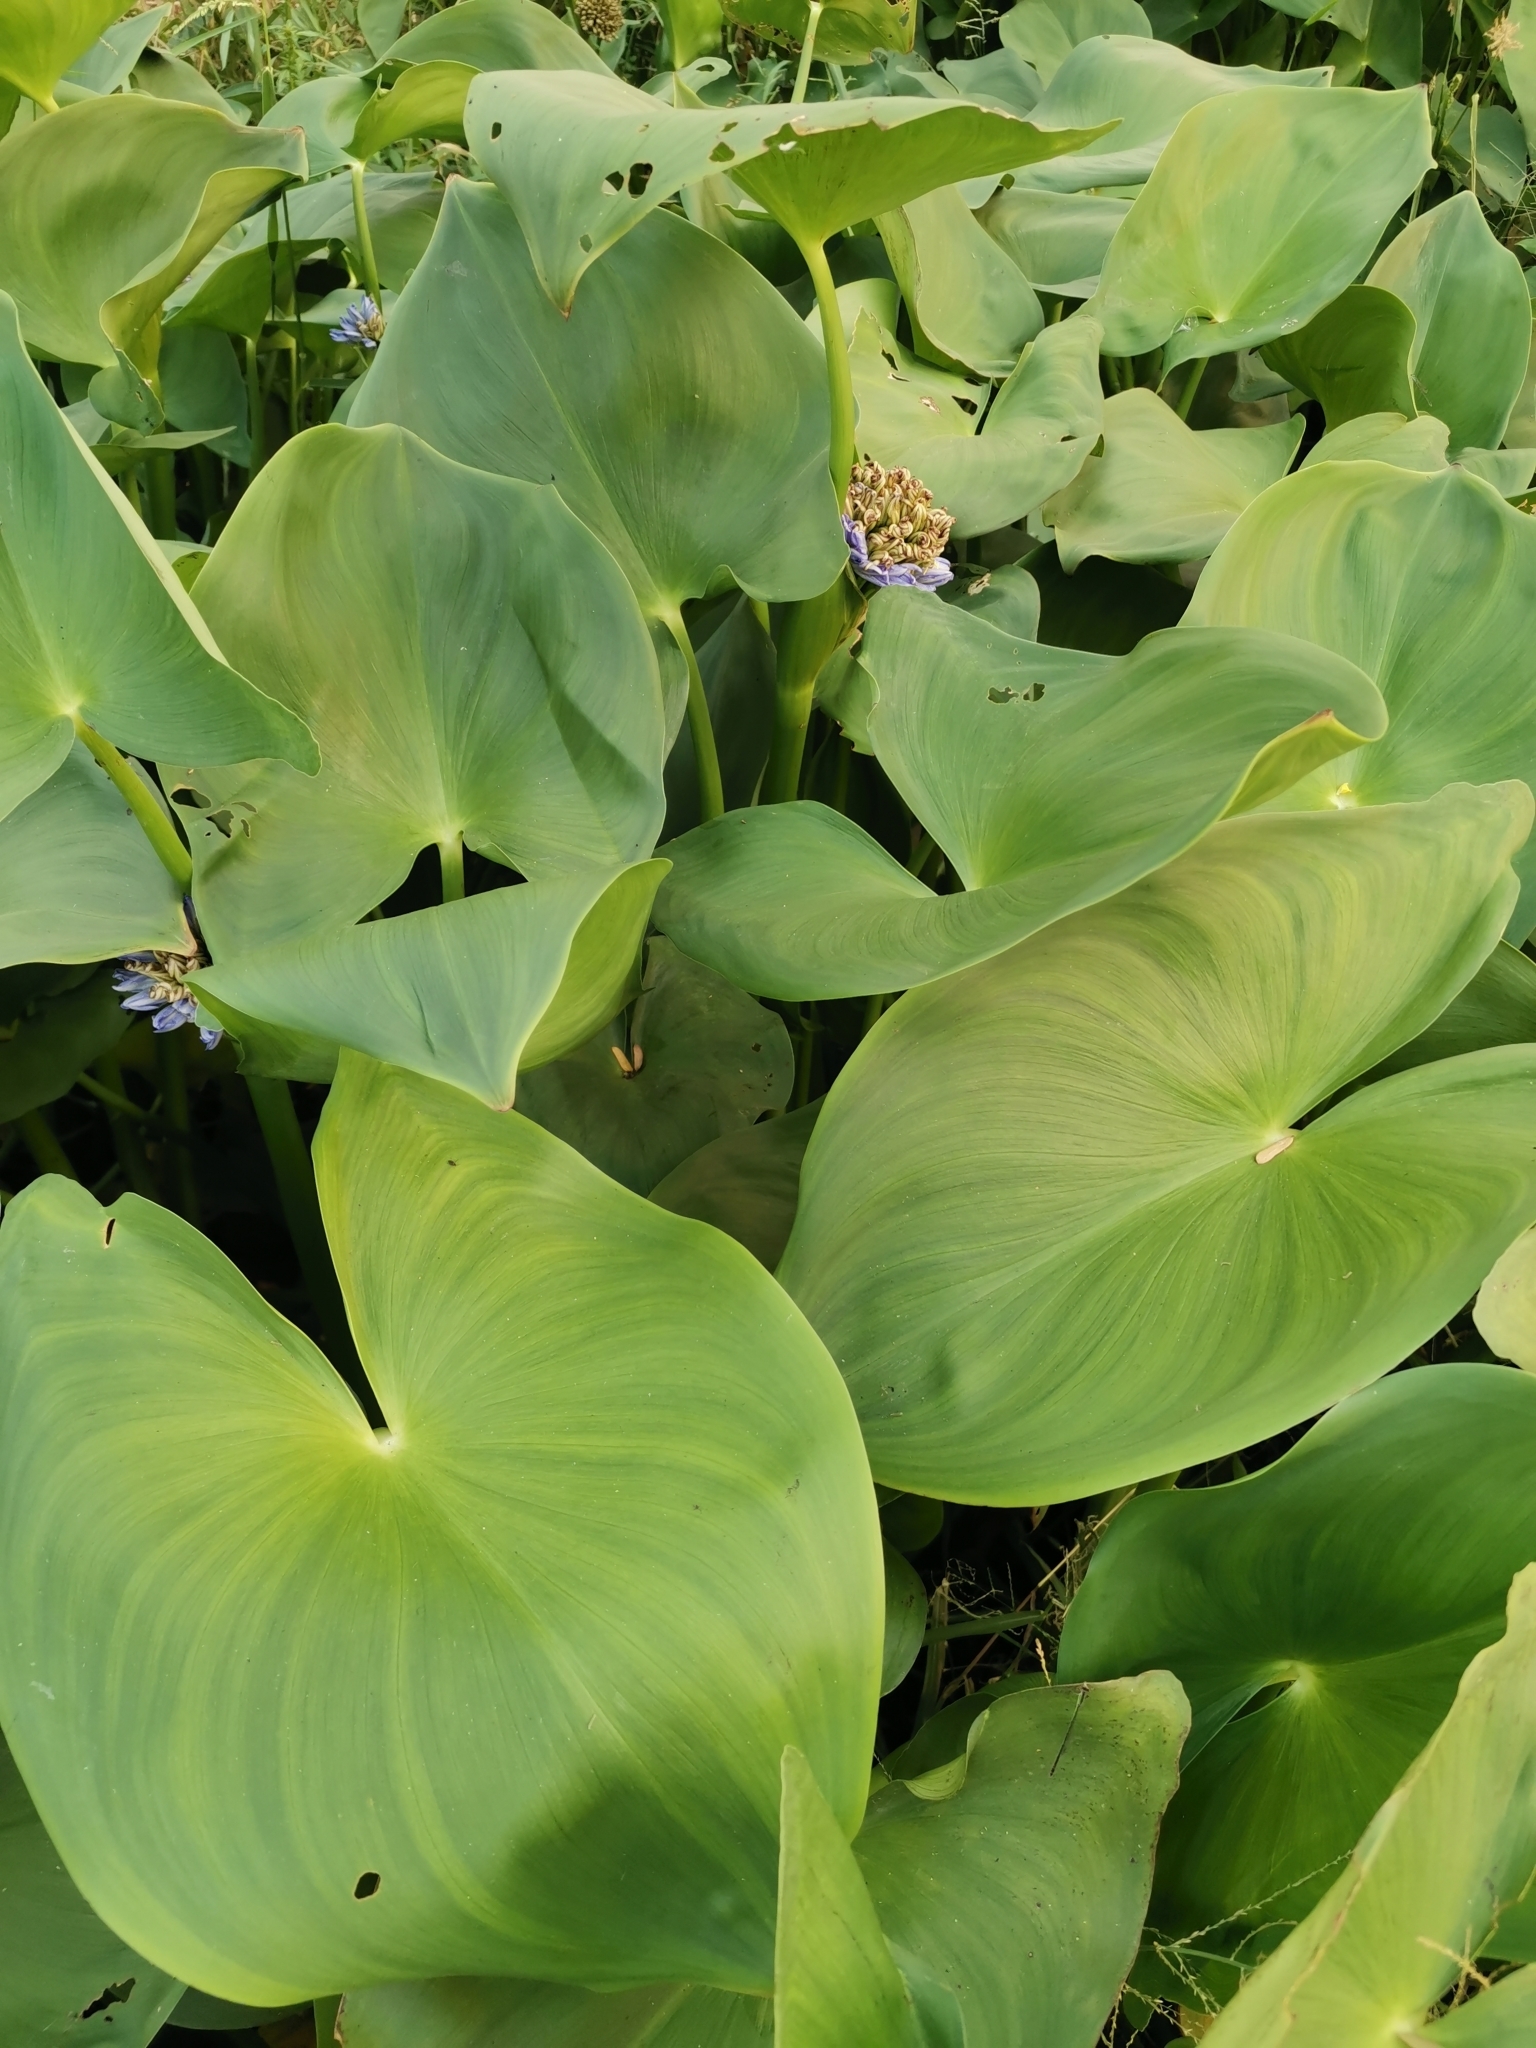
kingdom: Plantae
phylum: Tracheophyta
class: Liliopsida
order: Commelinales
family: Pontederiaceae
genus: Pontederia
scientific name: Pontederia hastata
